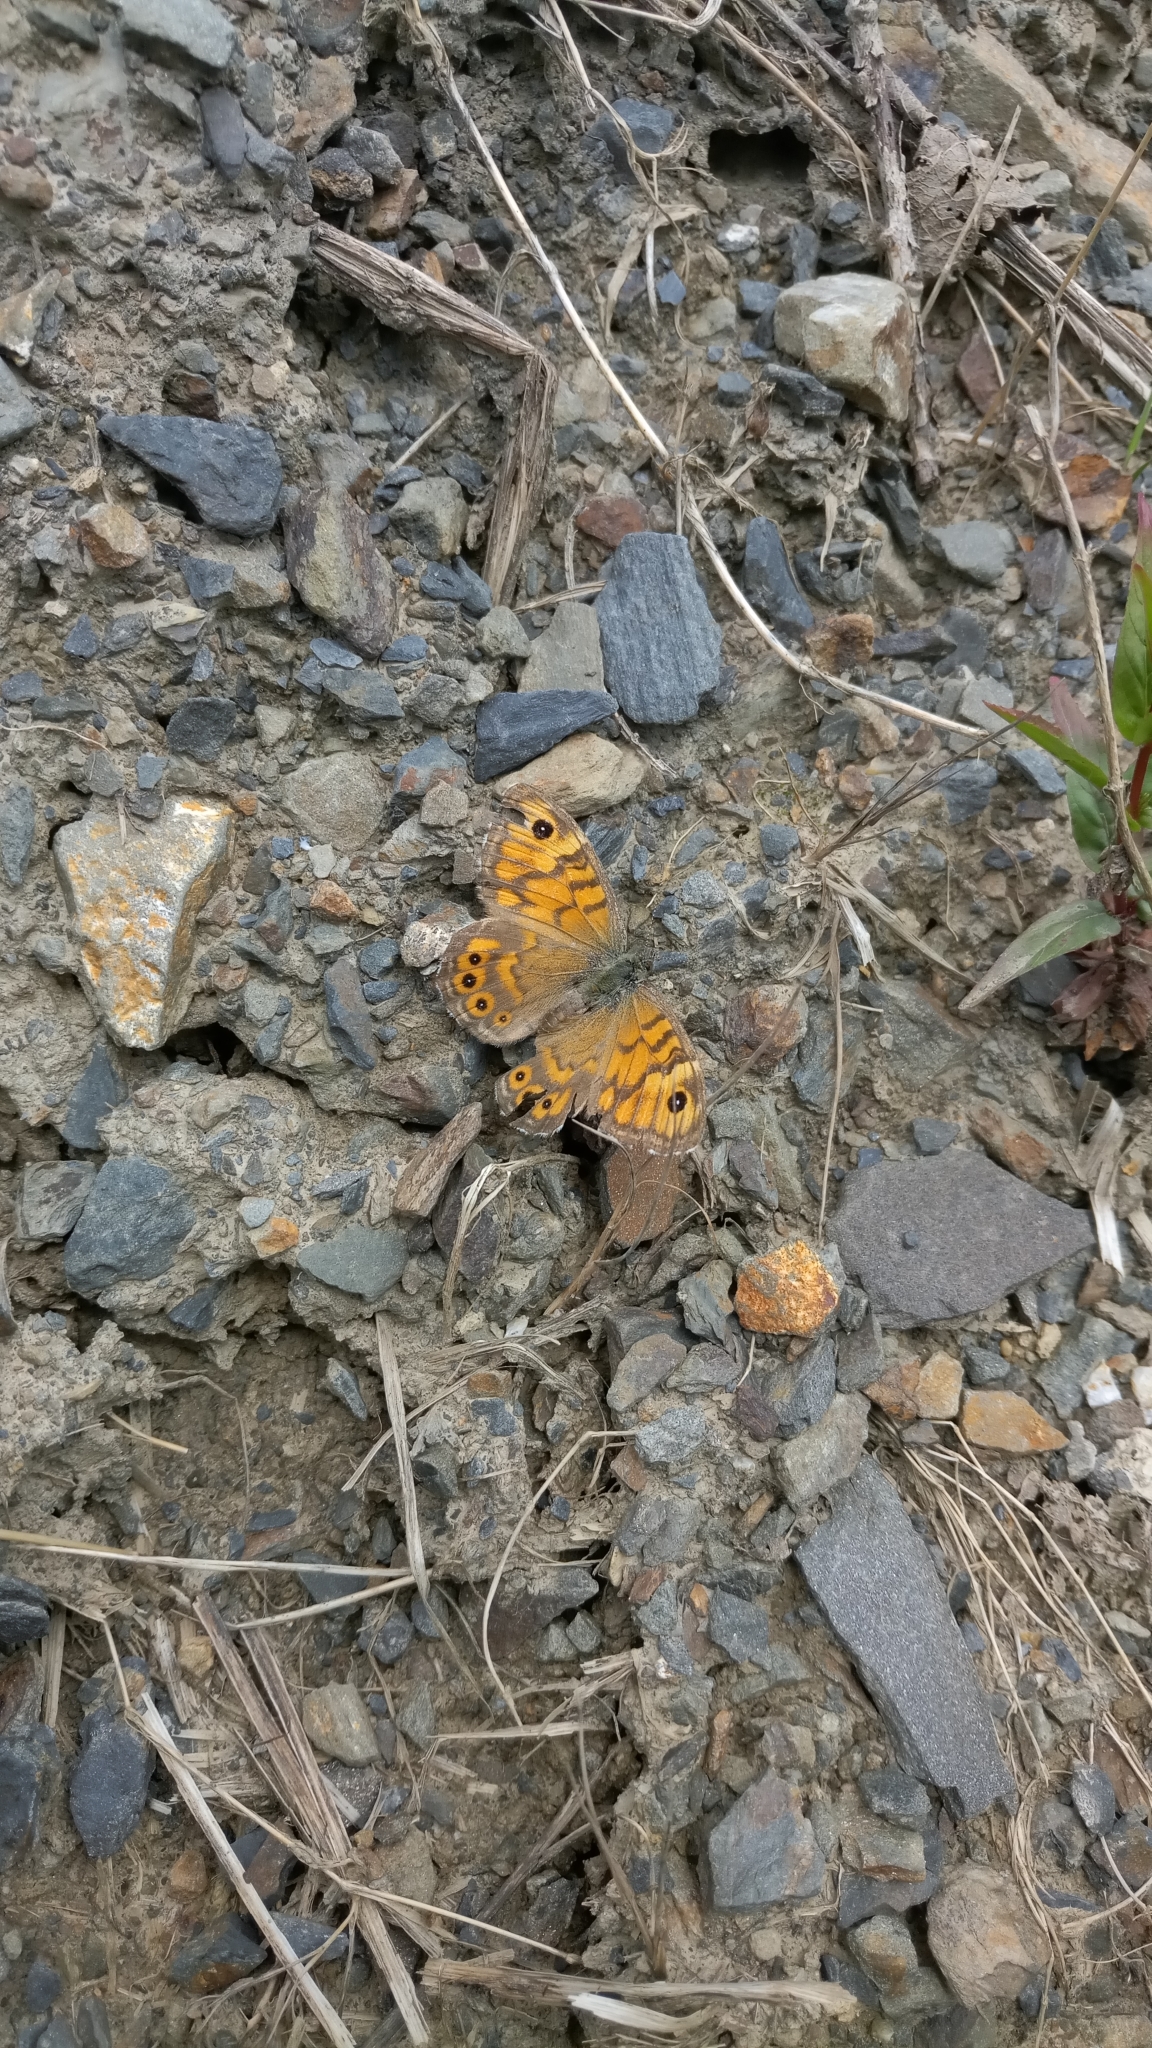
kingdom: Animalia
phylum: Arthropoda
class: Insecta
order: Lepidoptera
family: Nymphalidae
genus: Pararge
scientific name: Pararge Lasiommata megera
